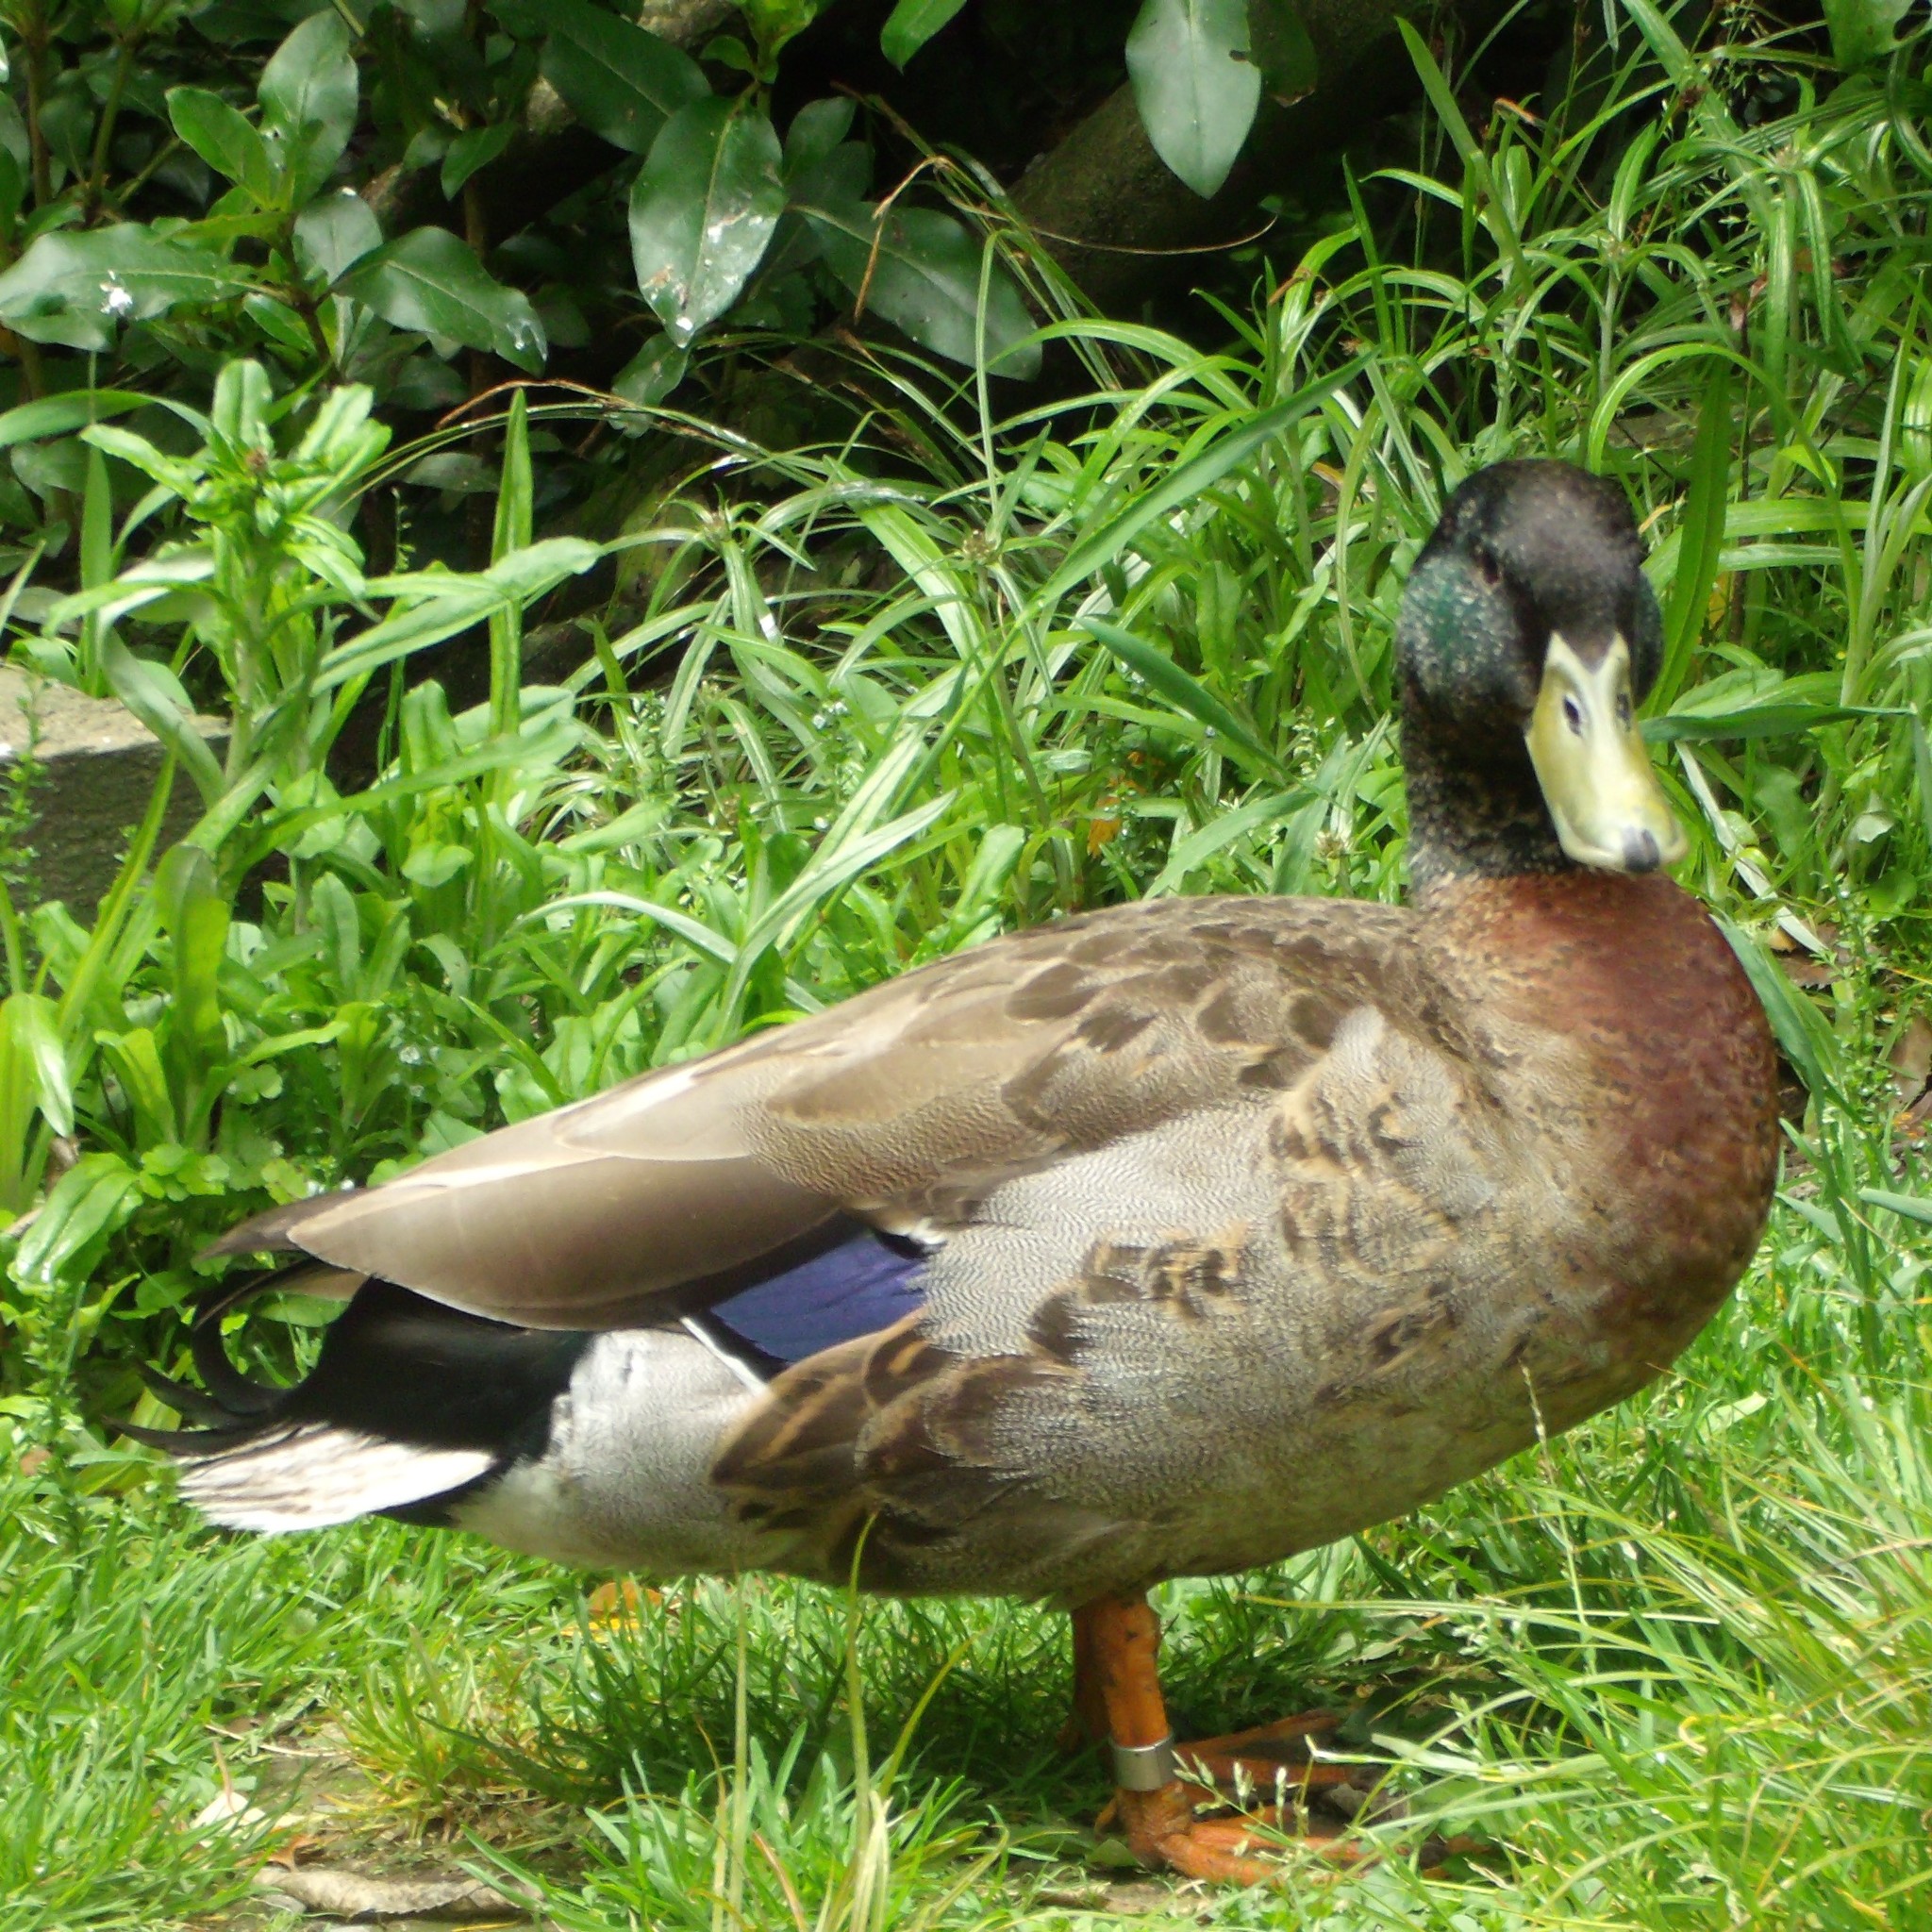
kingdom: Animalia
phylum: Chordata
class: Aves
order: Anseriformes
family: Anatidae
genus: Anas
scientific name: Anas platyrhynchos
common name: Mallard
